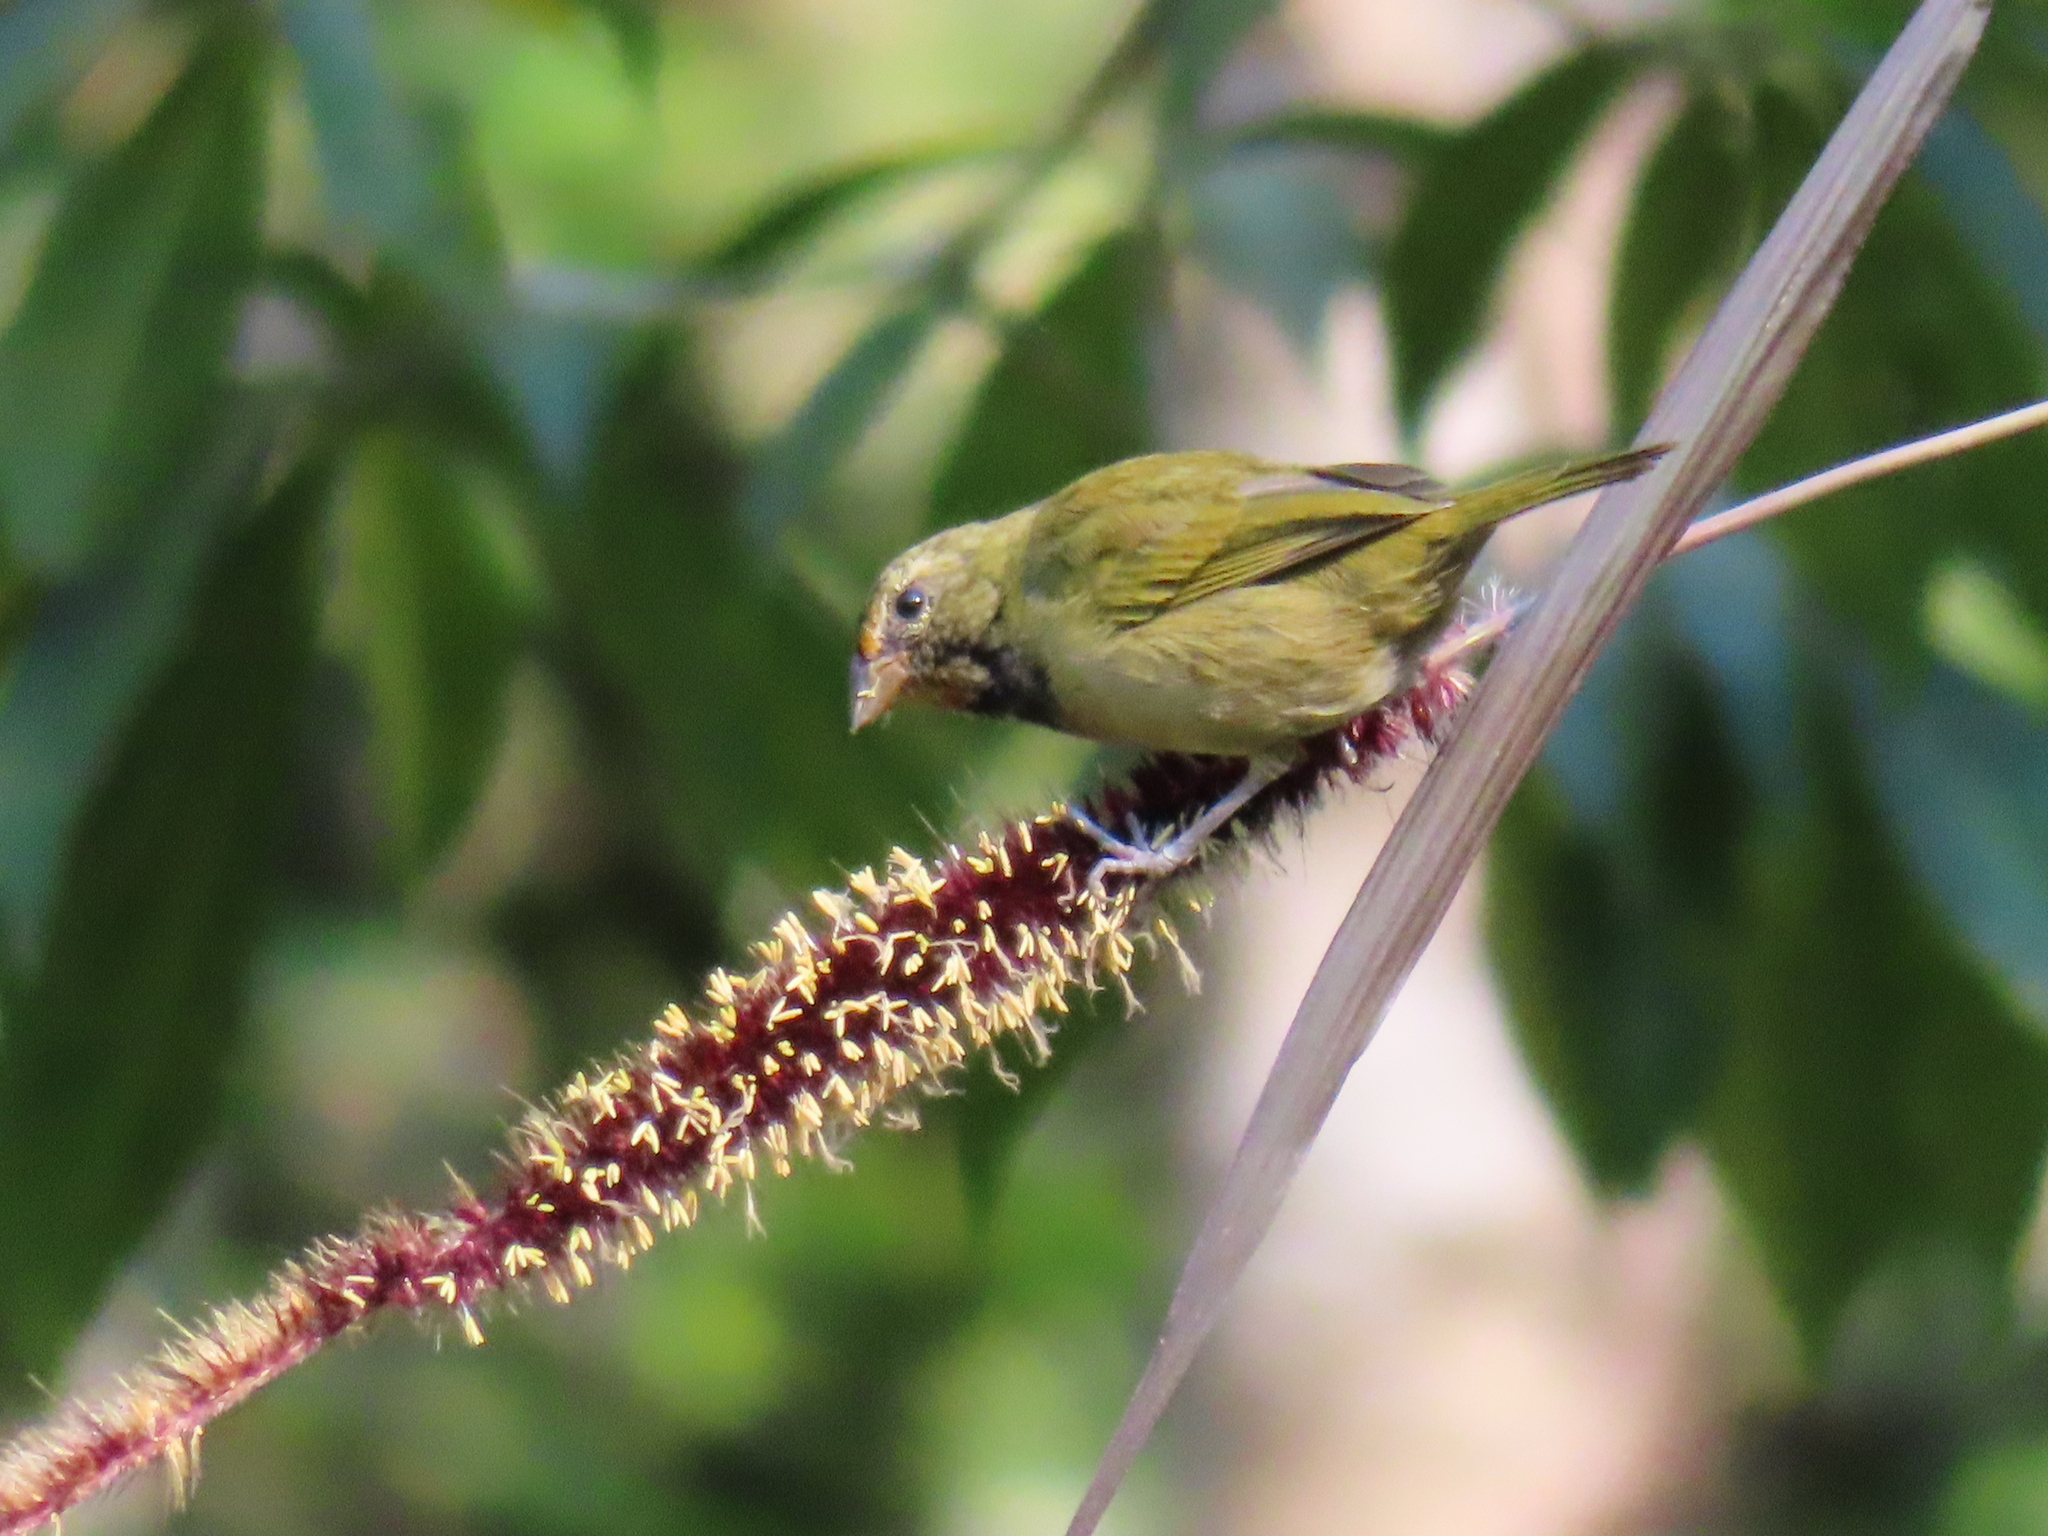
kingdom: Animalia
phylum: Chordata
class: Aves
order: Passeriformes
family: Thraupidae
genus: Tiaris
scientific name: Tiaris olivaceus
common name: Yellow-faced grassquit
